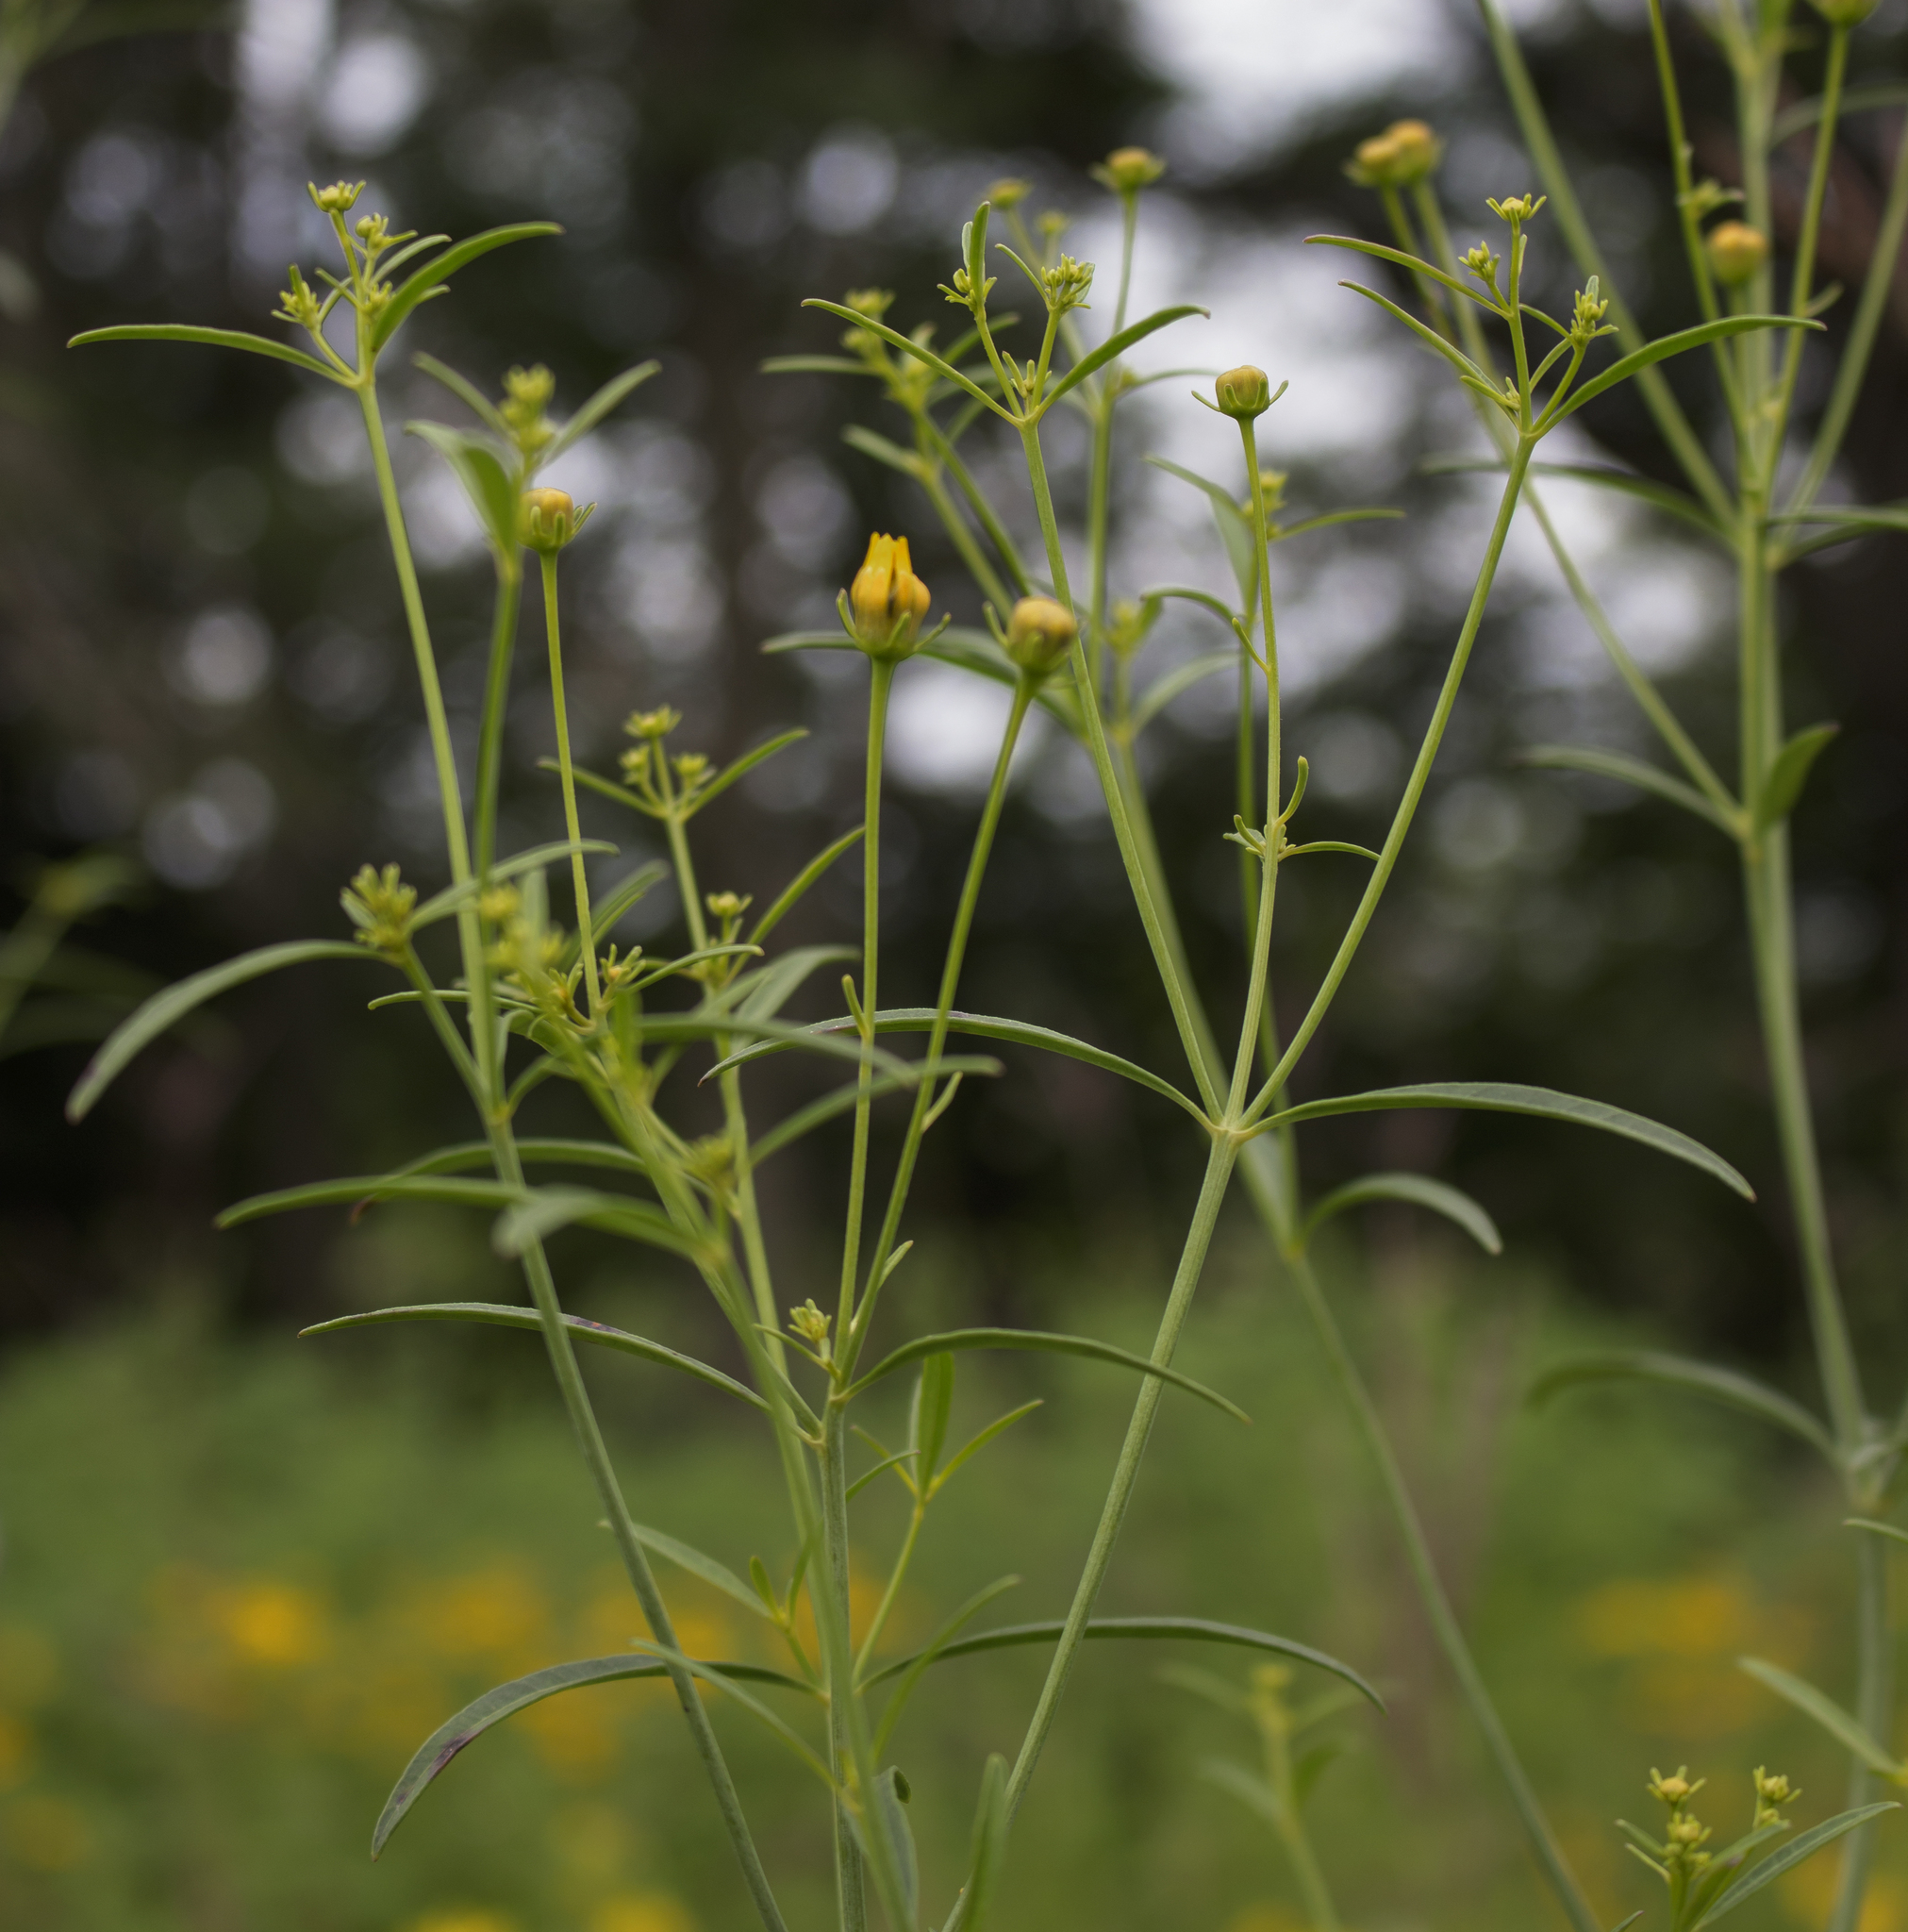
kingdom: Plantae
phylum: Tracheophyta
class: Magnoliopsida
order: Asterales
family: Asteraceae
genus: Coreopsis
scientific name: Coreopsis tripteris
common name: Tall coreopsis
